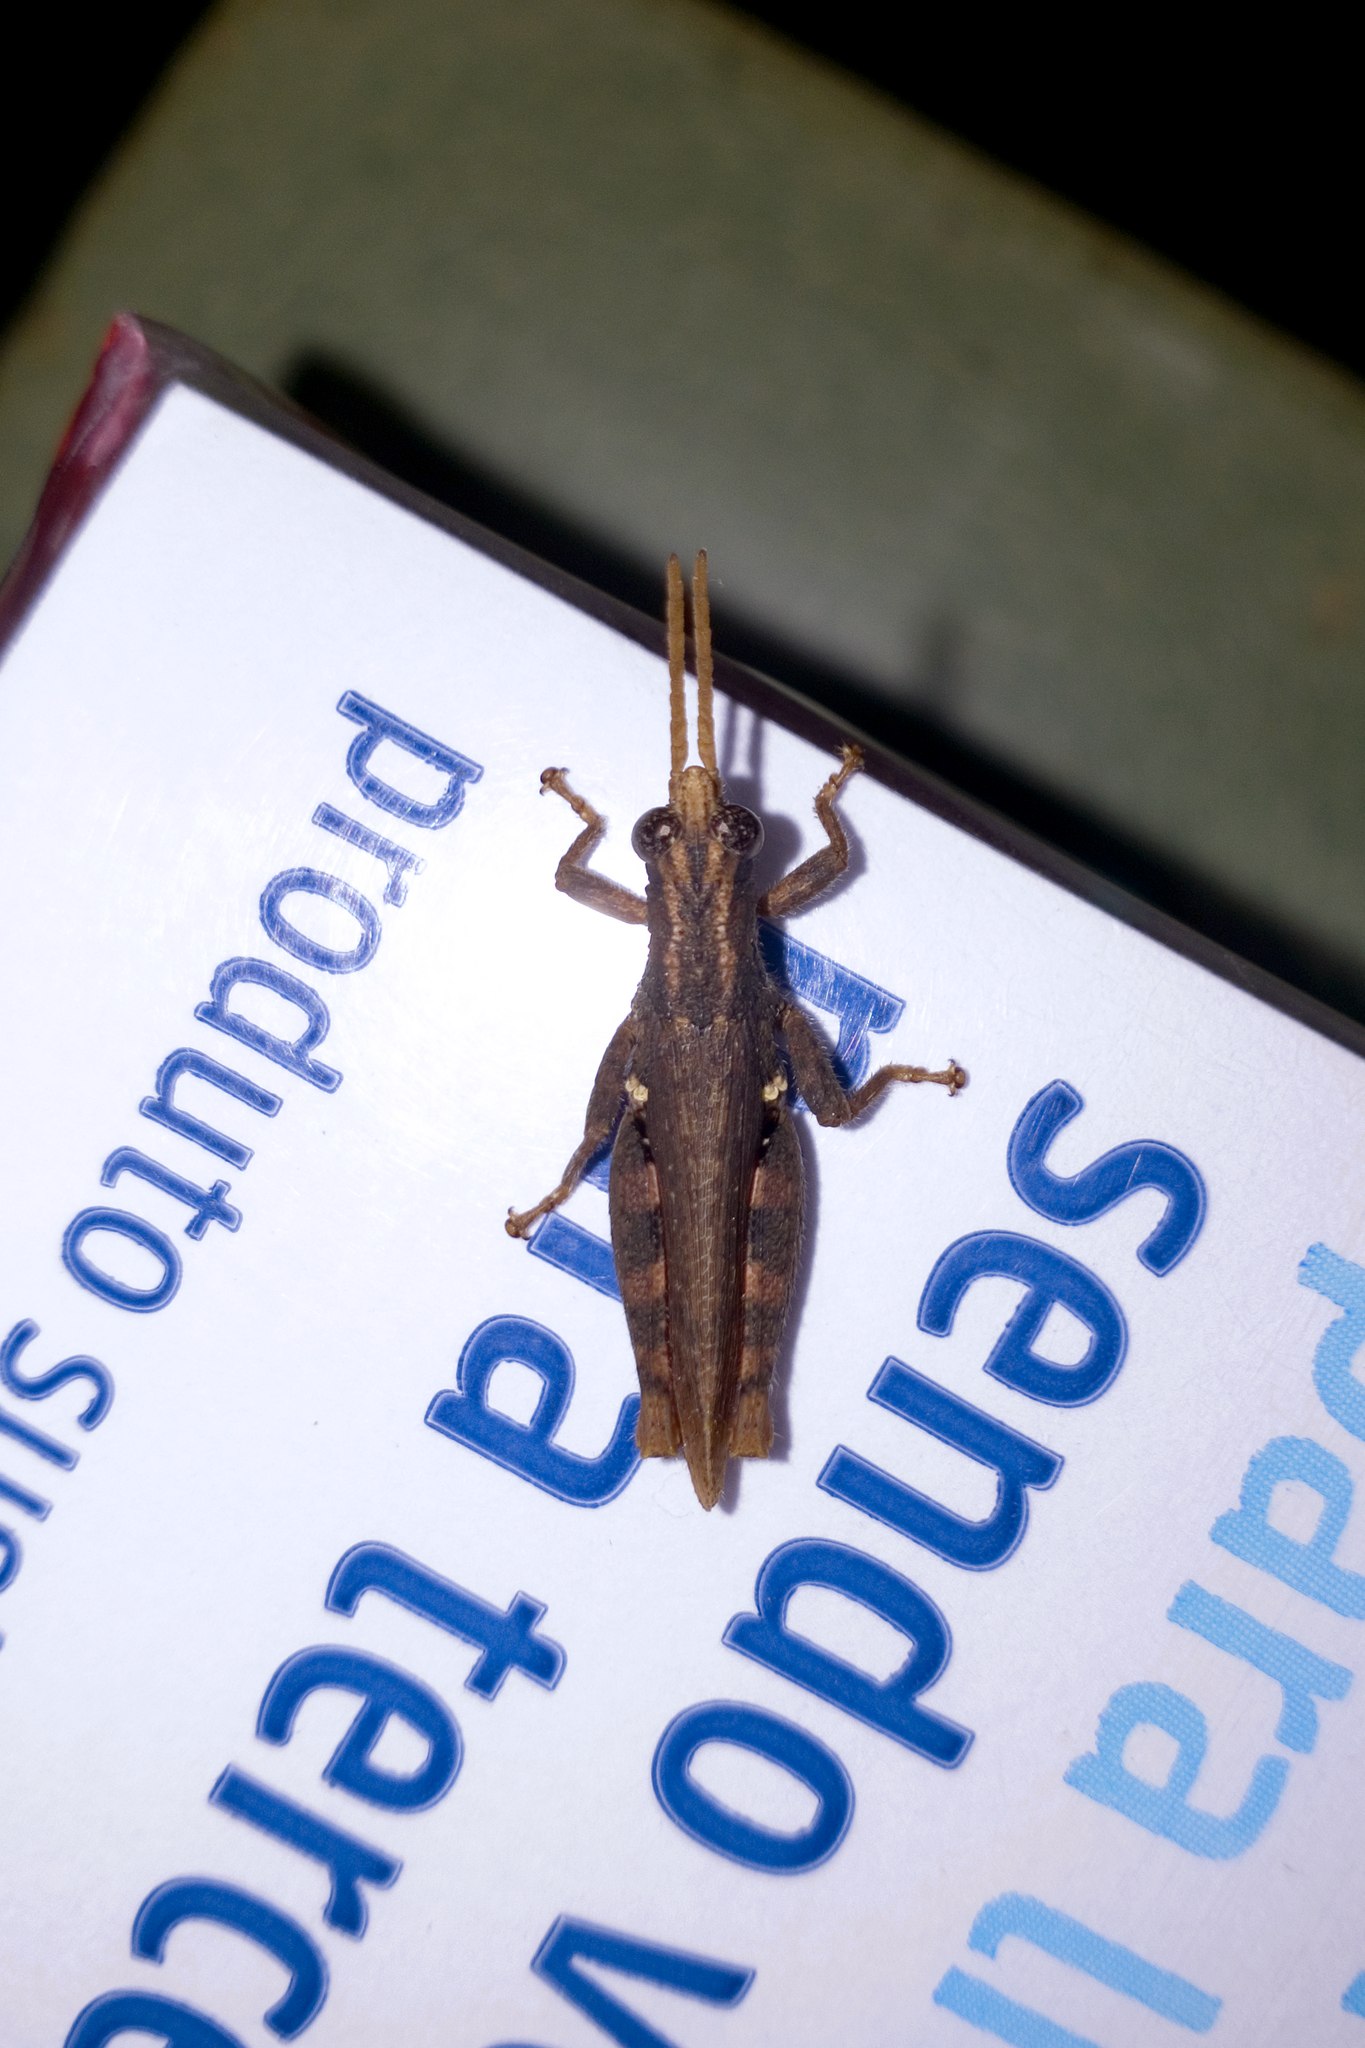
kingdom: Animalia
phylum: Arthropoda
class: Insecta
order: Orthoptera
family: Acrididae
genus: Vilerna
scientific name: Vilerna rugulosa
